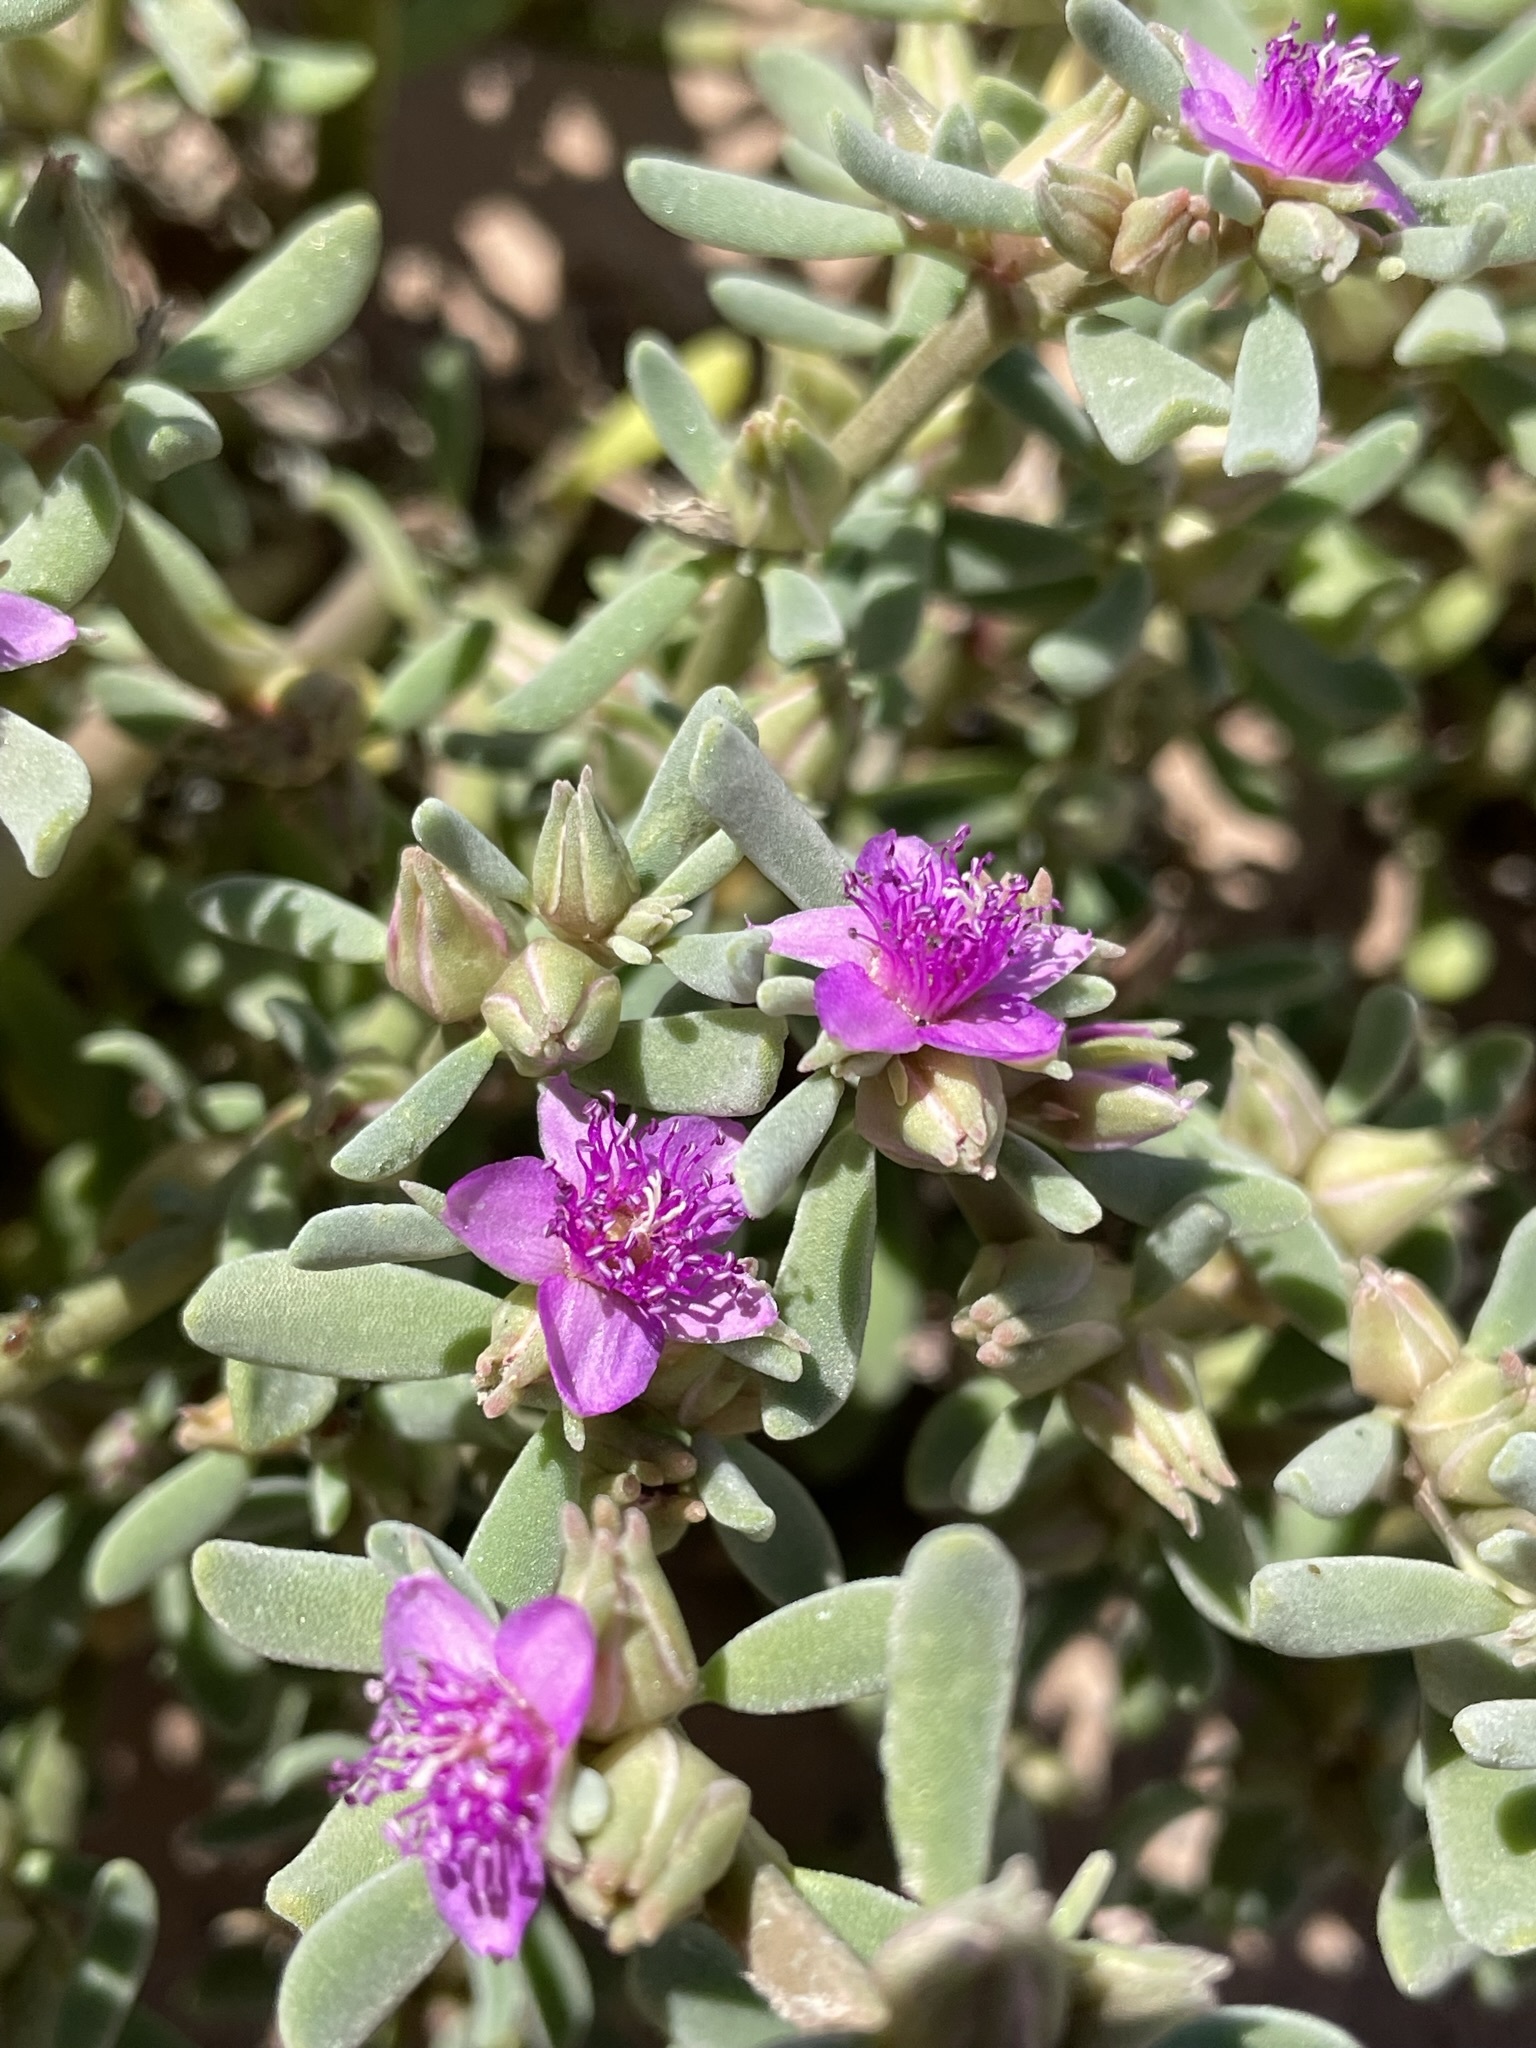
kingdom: Plantae
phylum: Tracheophyta
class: Magnoliopsida
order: Caryophyllales
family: Aizoaceae
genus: Sesuvium
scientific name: Sesuvium revolutifolium
